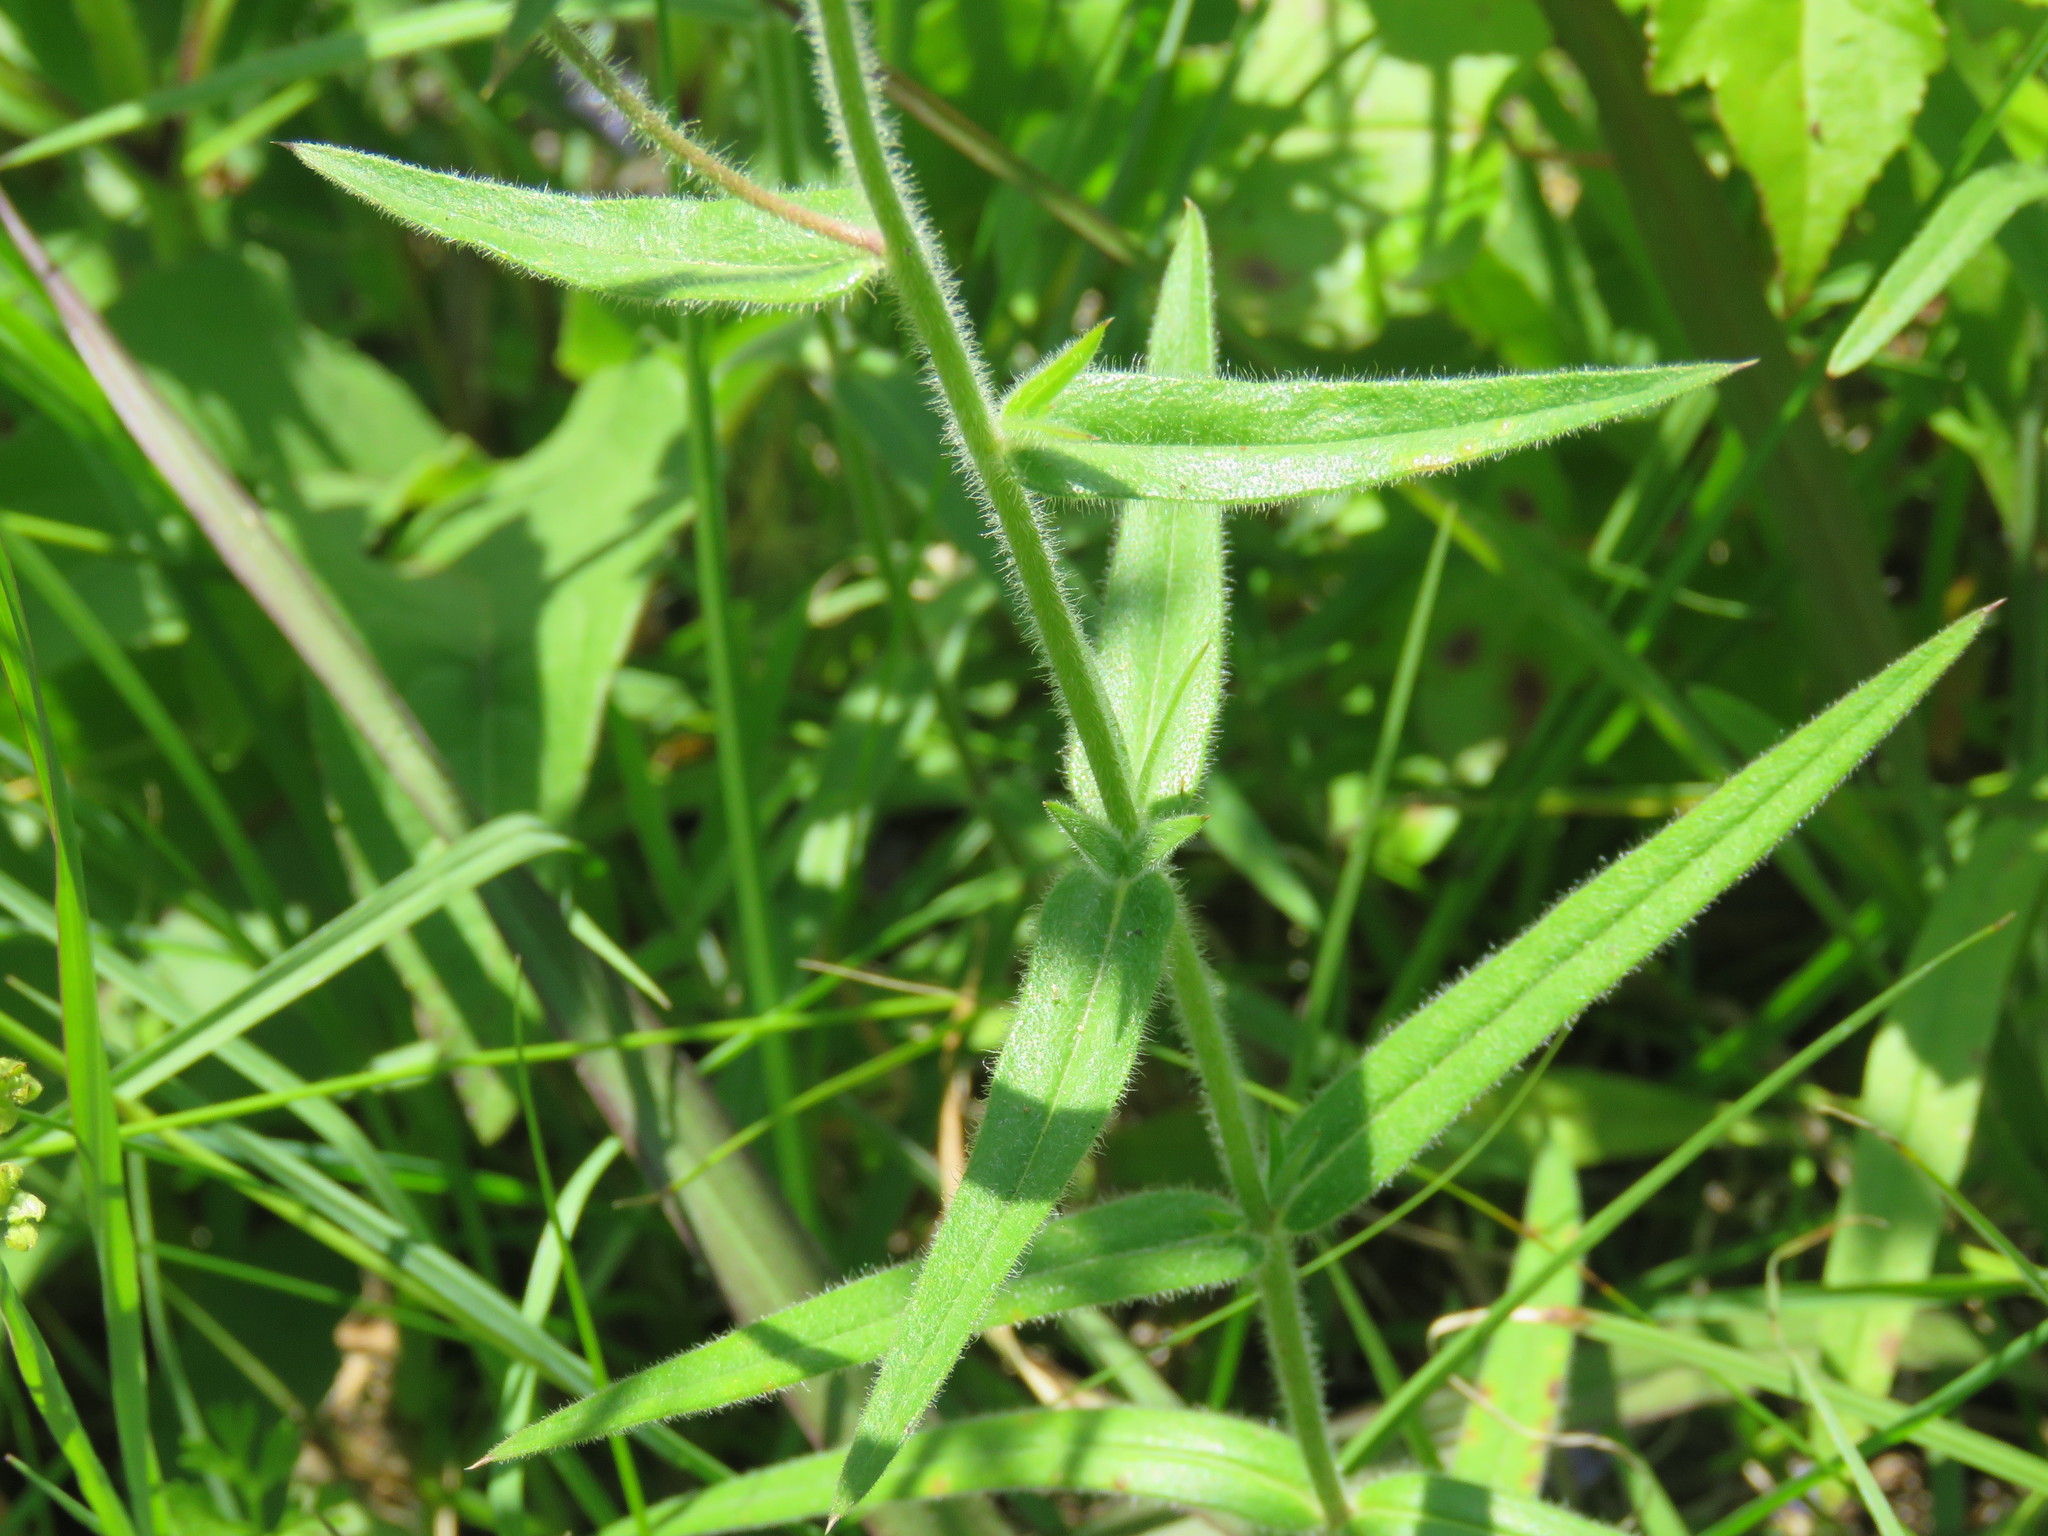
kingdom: Plantae
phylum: Tracheophyta
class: Magnoliopsida
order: Ericales
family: Polemoniaceae
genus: Phlox
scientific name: Phlox pilosa
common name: Prairie phlox
